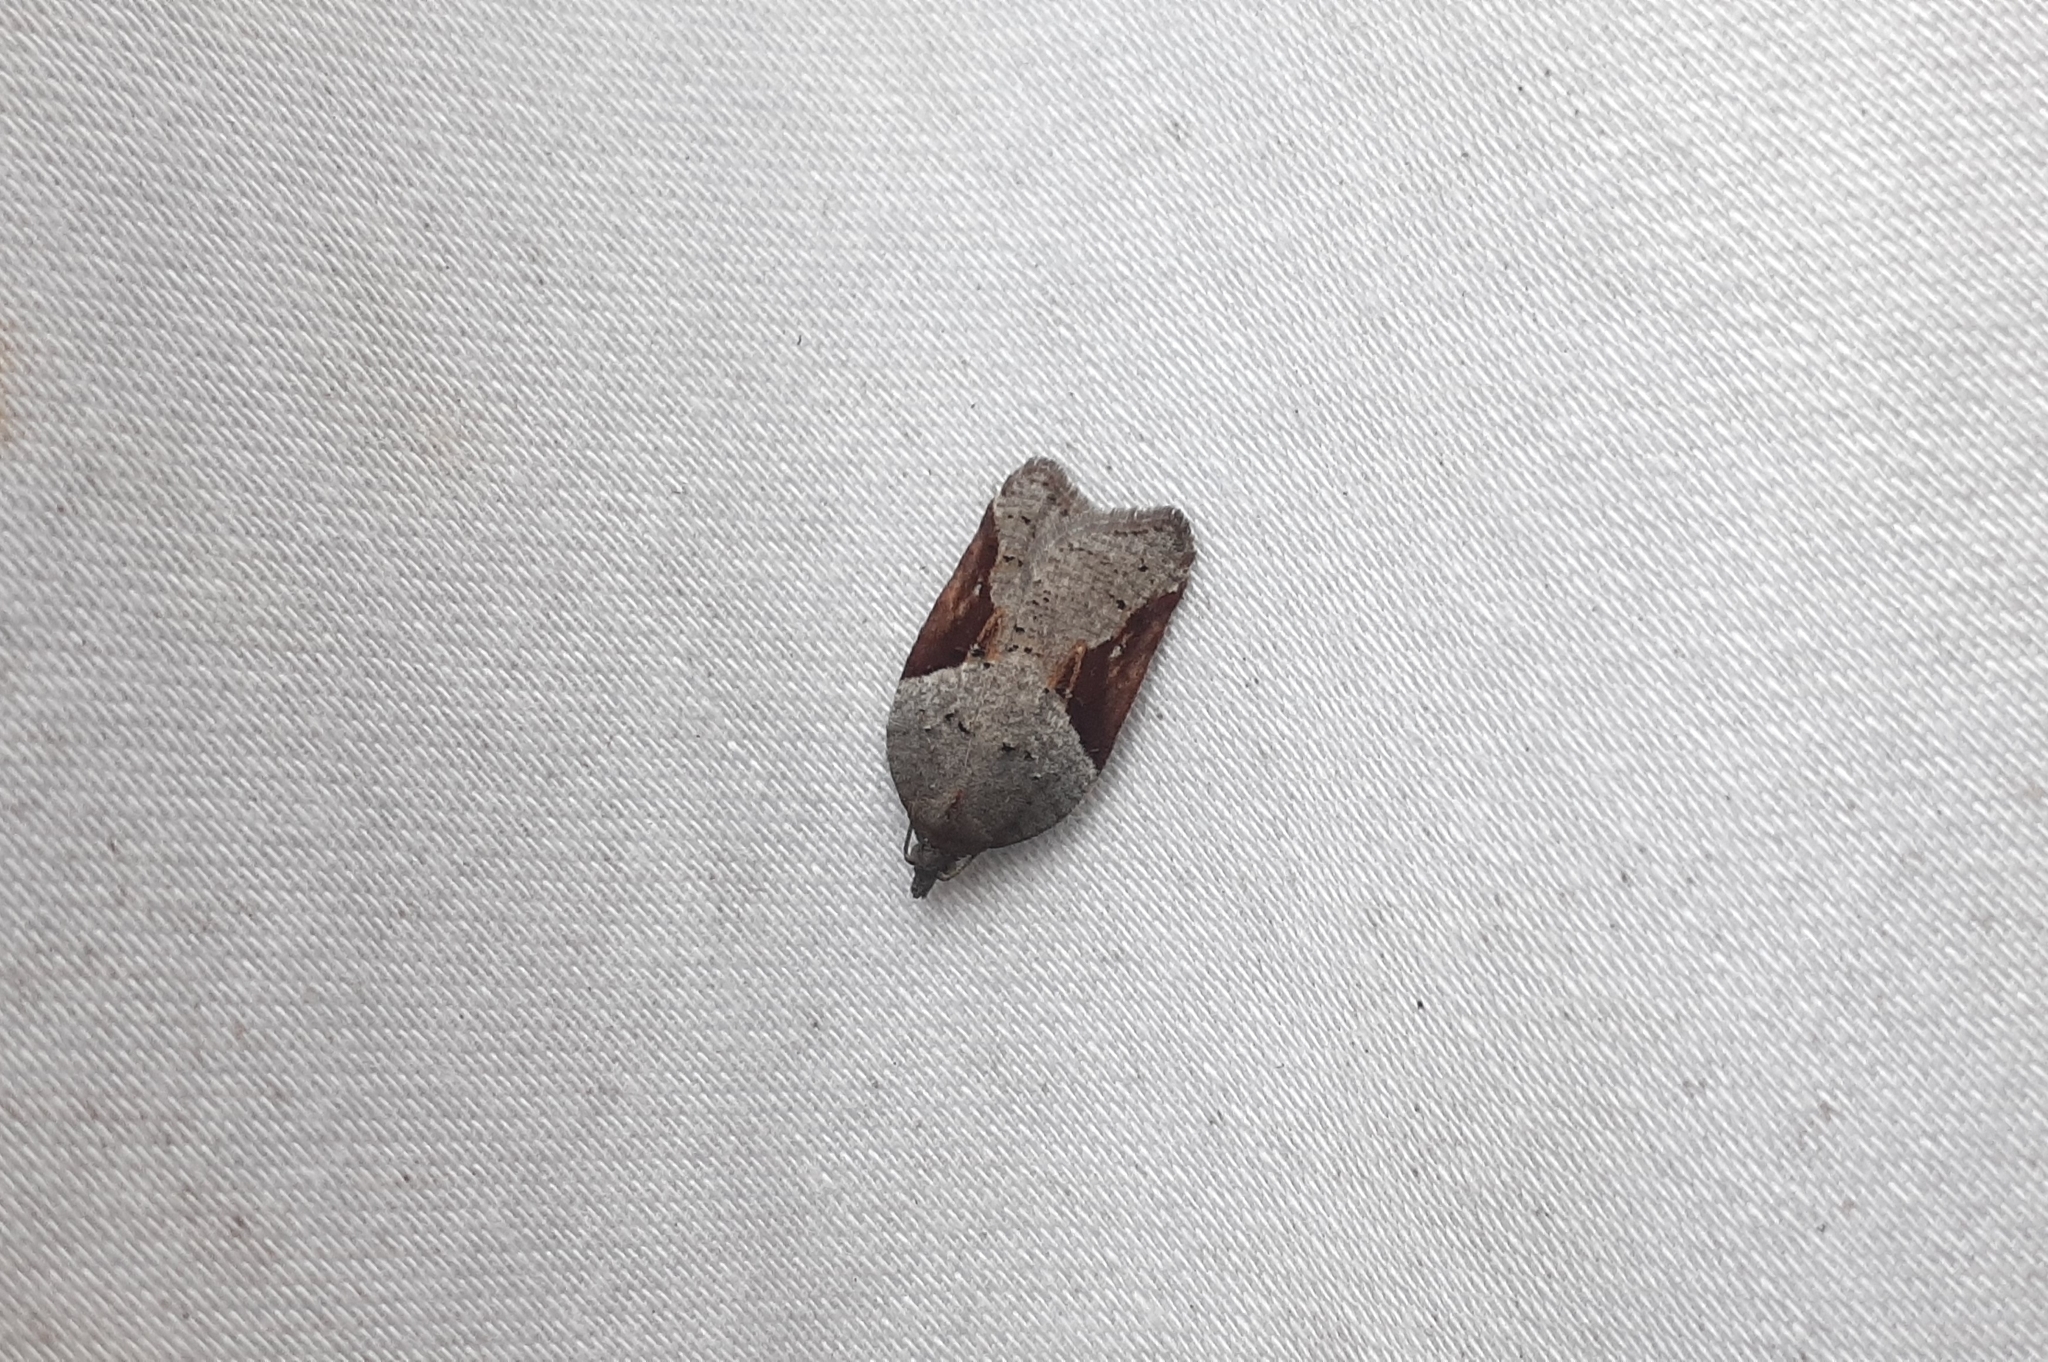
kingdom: Animalia
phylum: Arthropoda
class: Insecta
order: Lepidoptera
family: Tortricidae
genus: Acleris
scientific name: Acleris macdunnoughi
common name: Macdunnough's acleris
